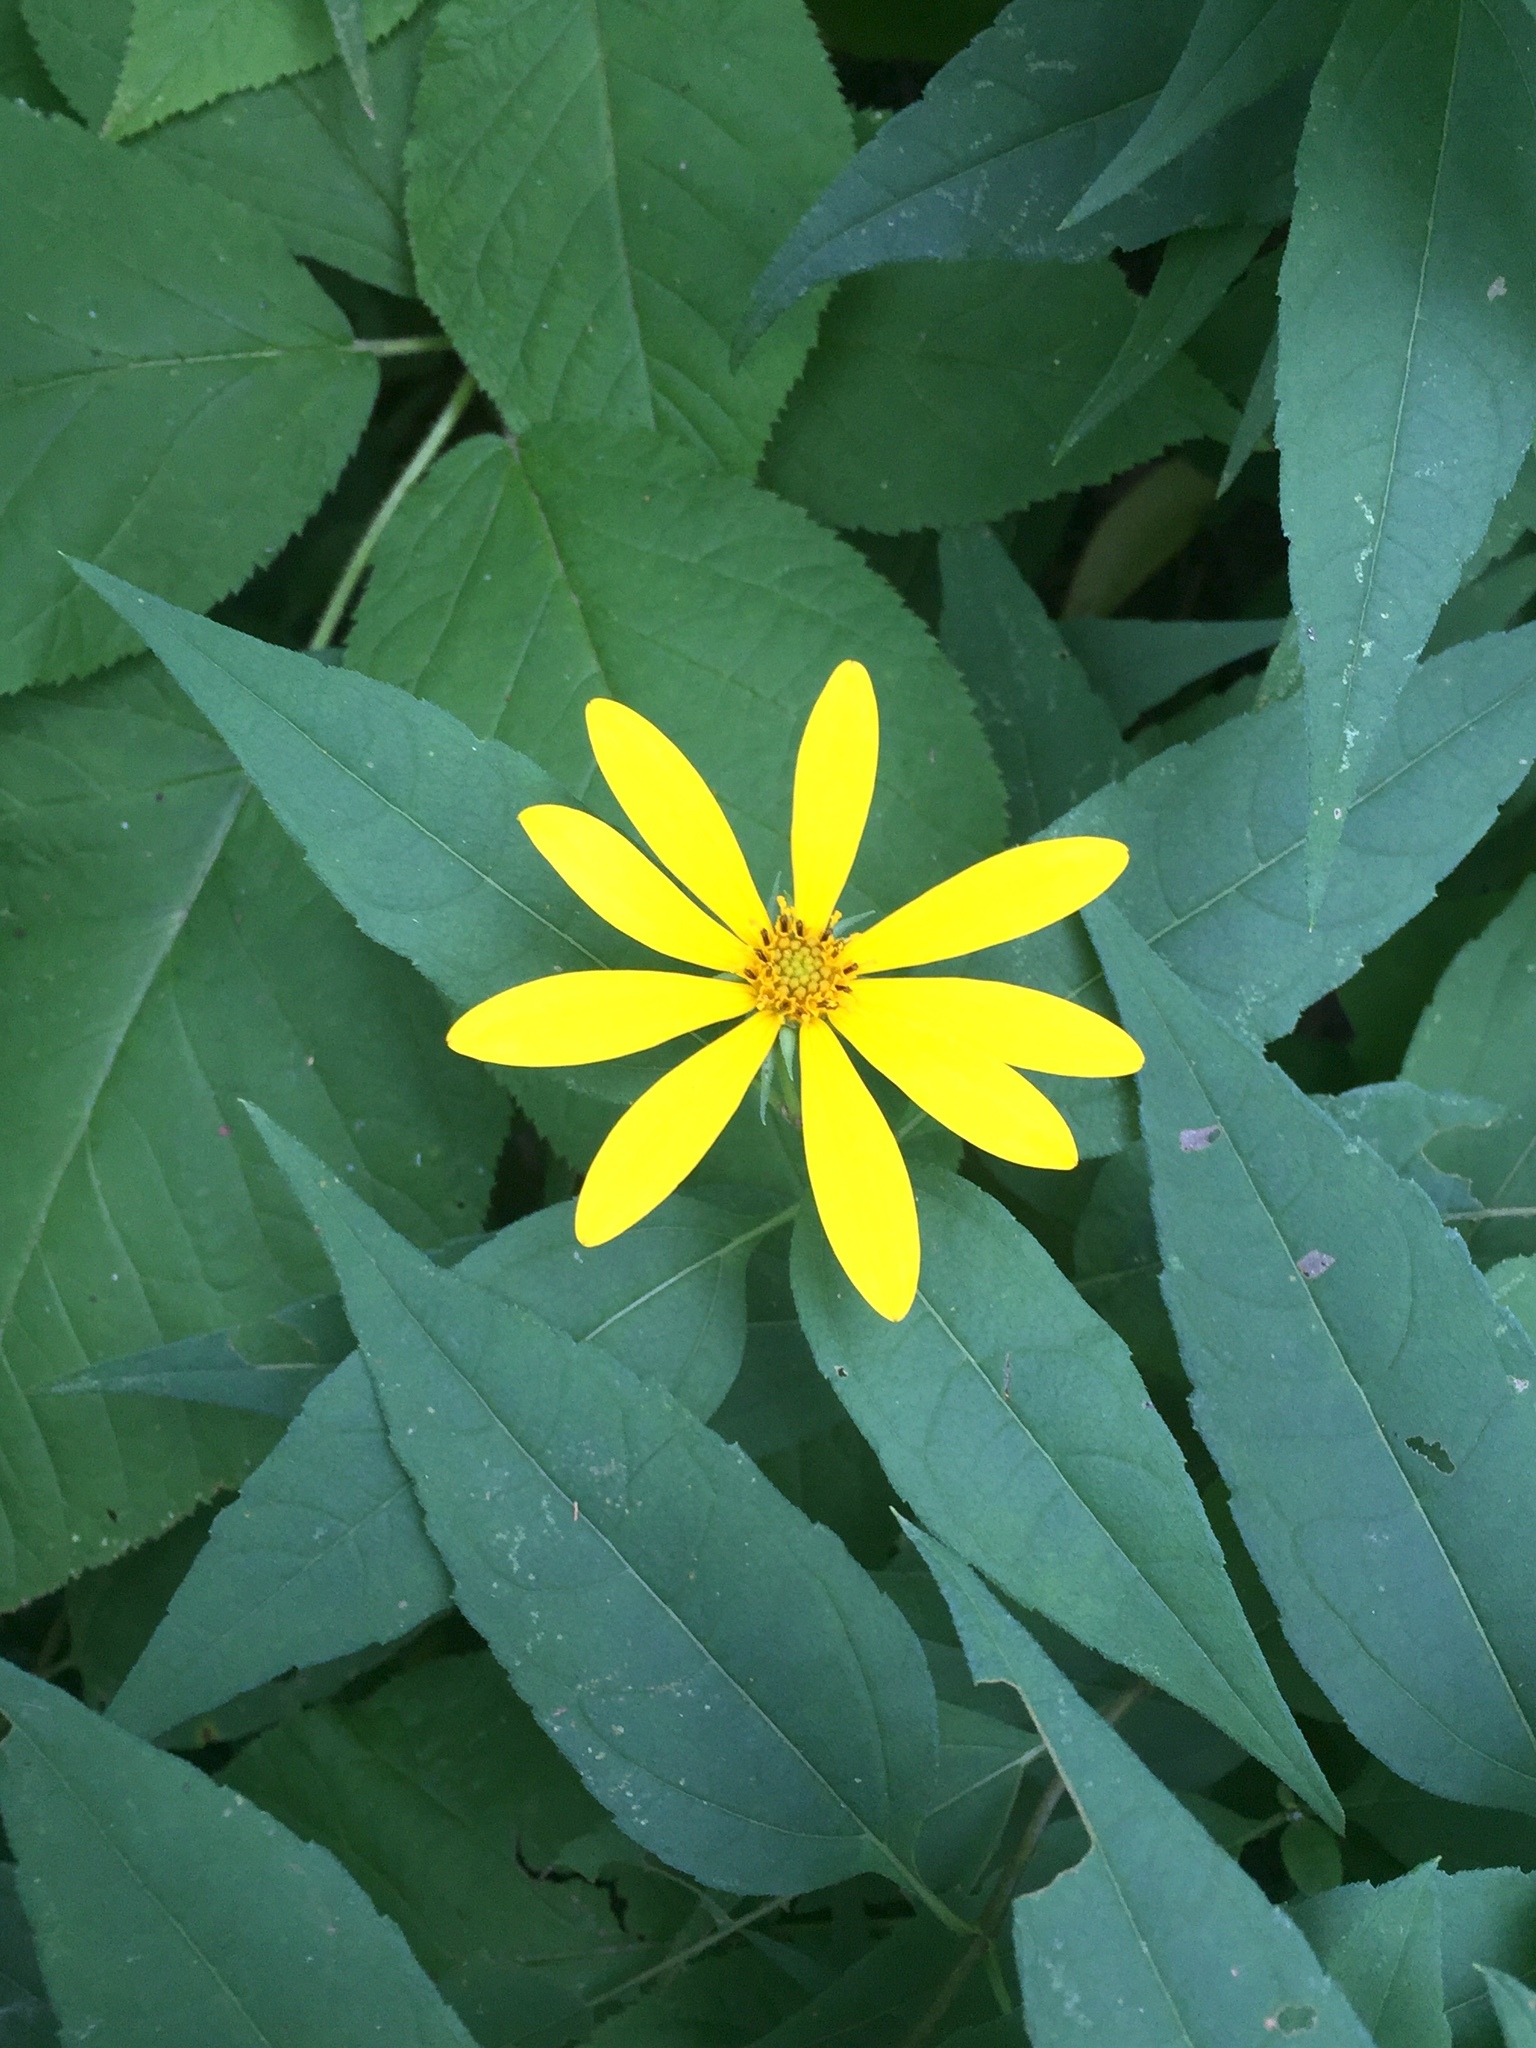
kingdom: Plantae
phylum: Tracheophyta
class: Magnoliopsida
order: Asterales
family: Asteraceae
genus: Helianthus
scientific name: Helianthus divaricatus
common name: Divergent sunflower
